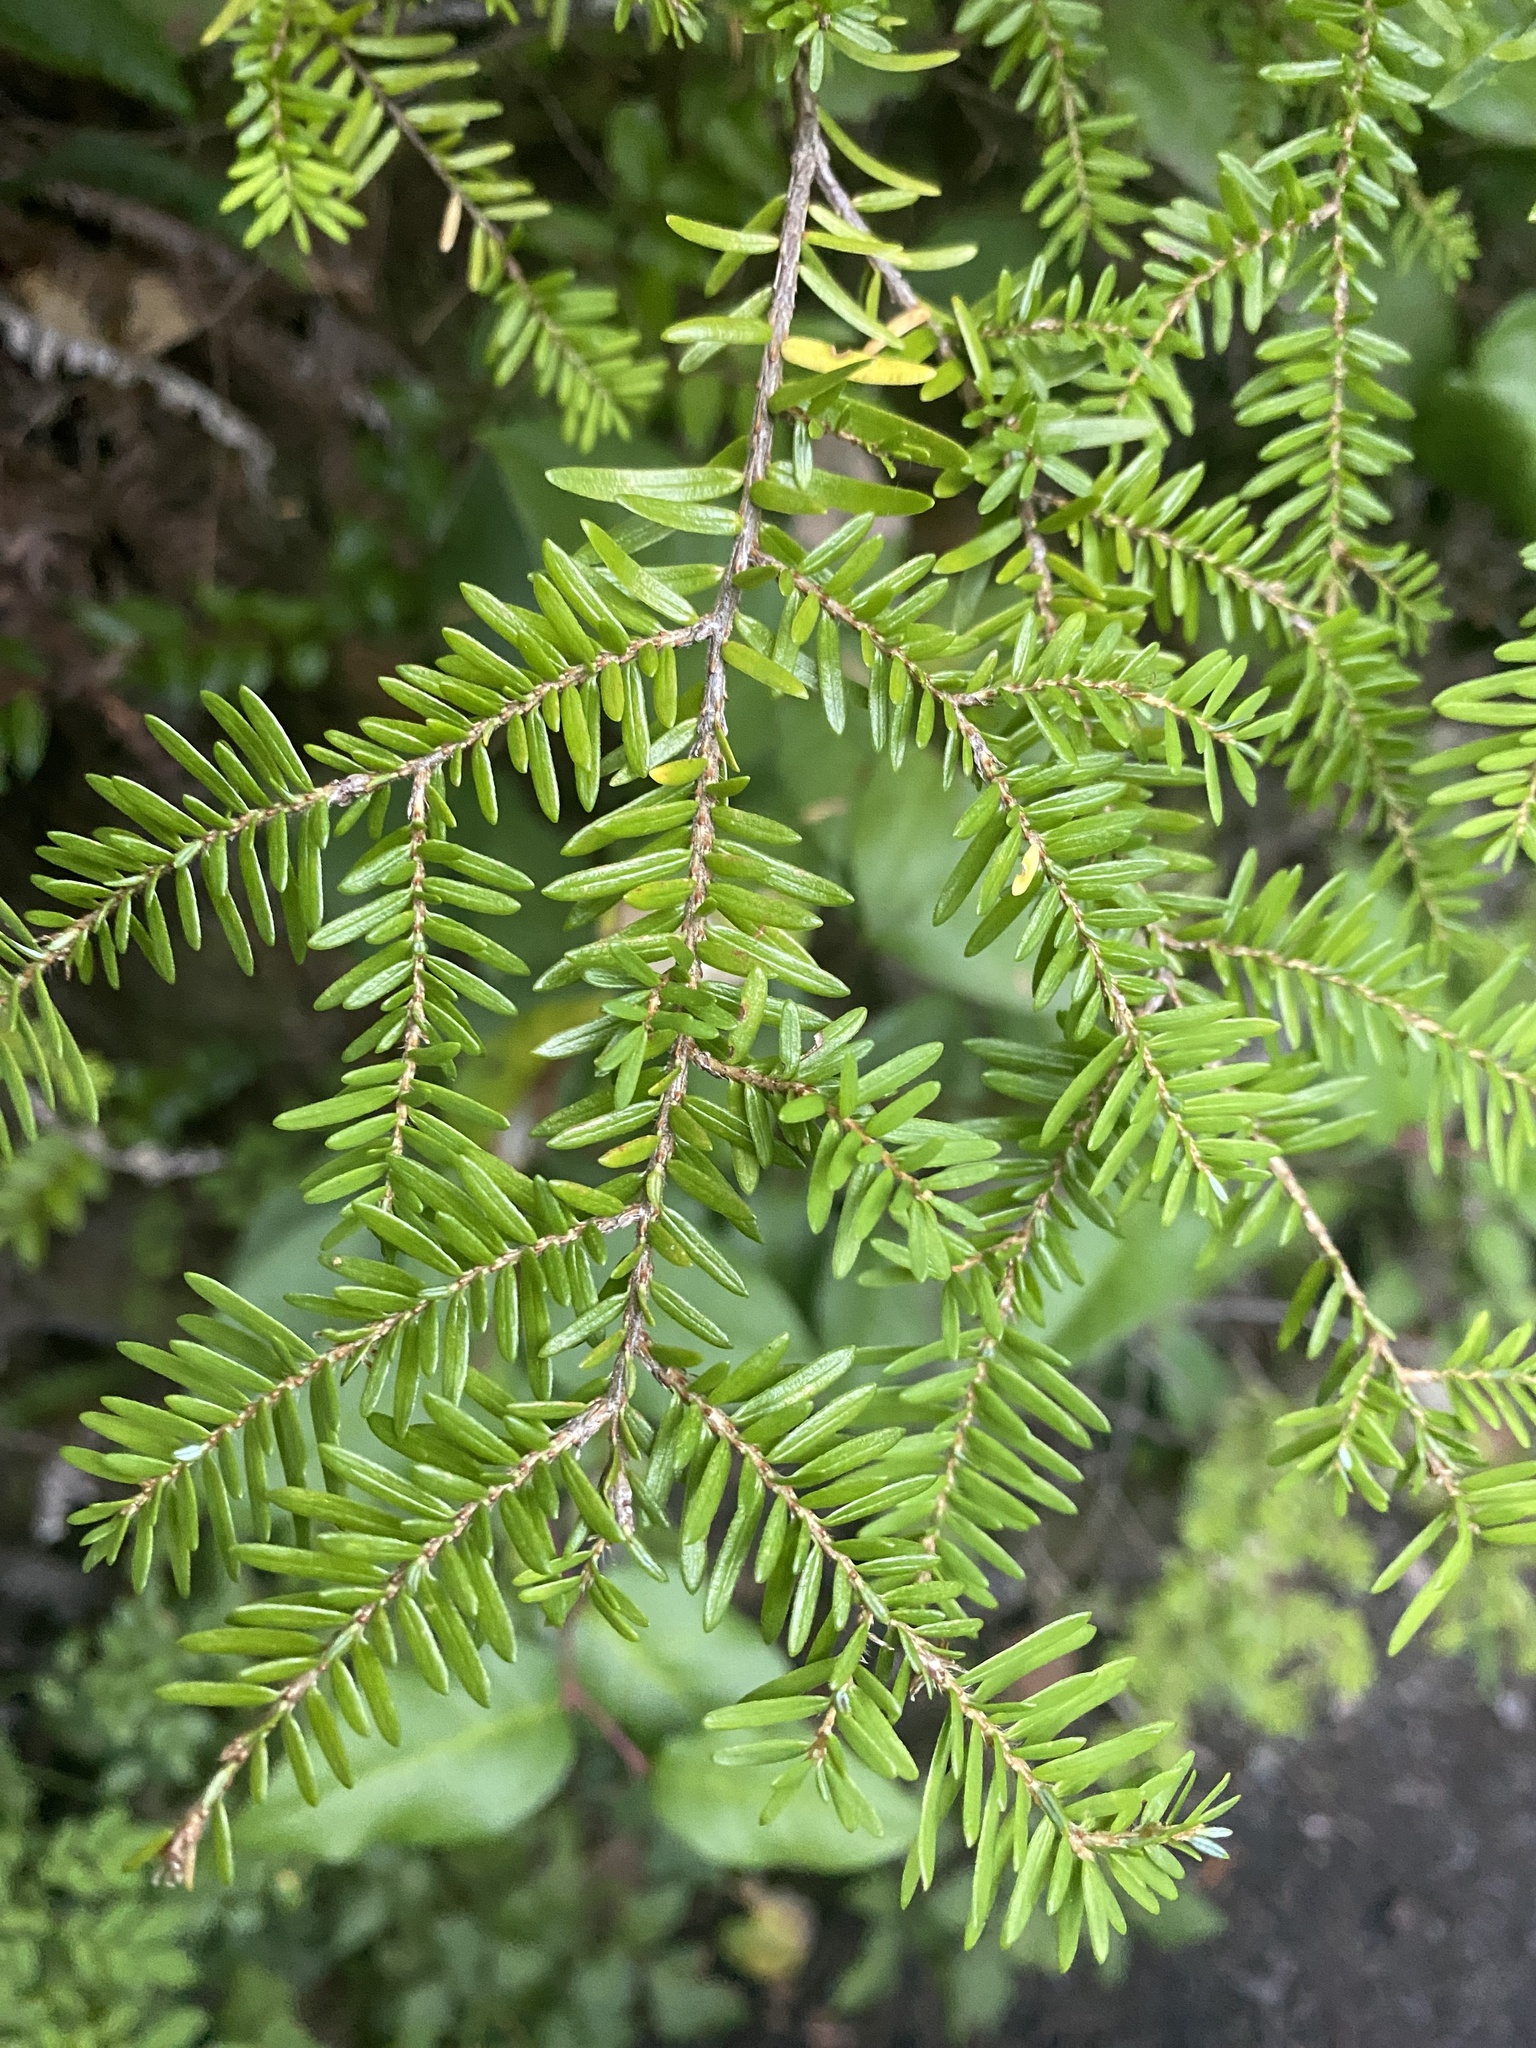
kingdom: Plantae
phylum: Tracheophyta
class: Pinopsida
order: Pinales
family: Pinaceae
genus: Tsuga
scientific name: Tsuga heterophylla
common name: Western hemlock
